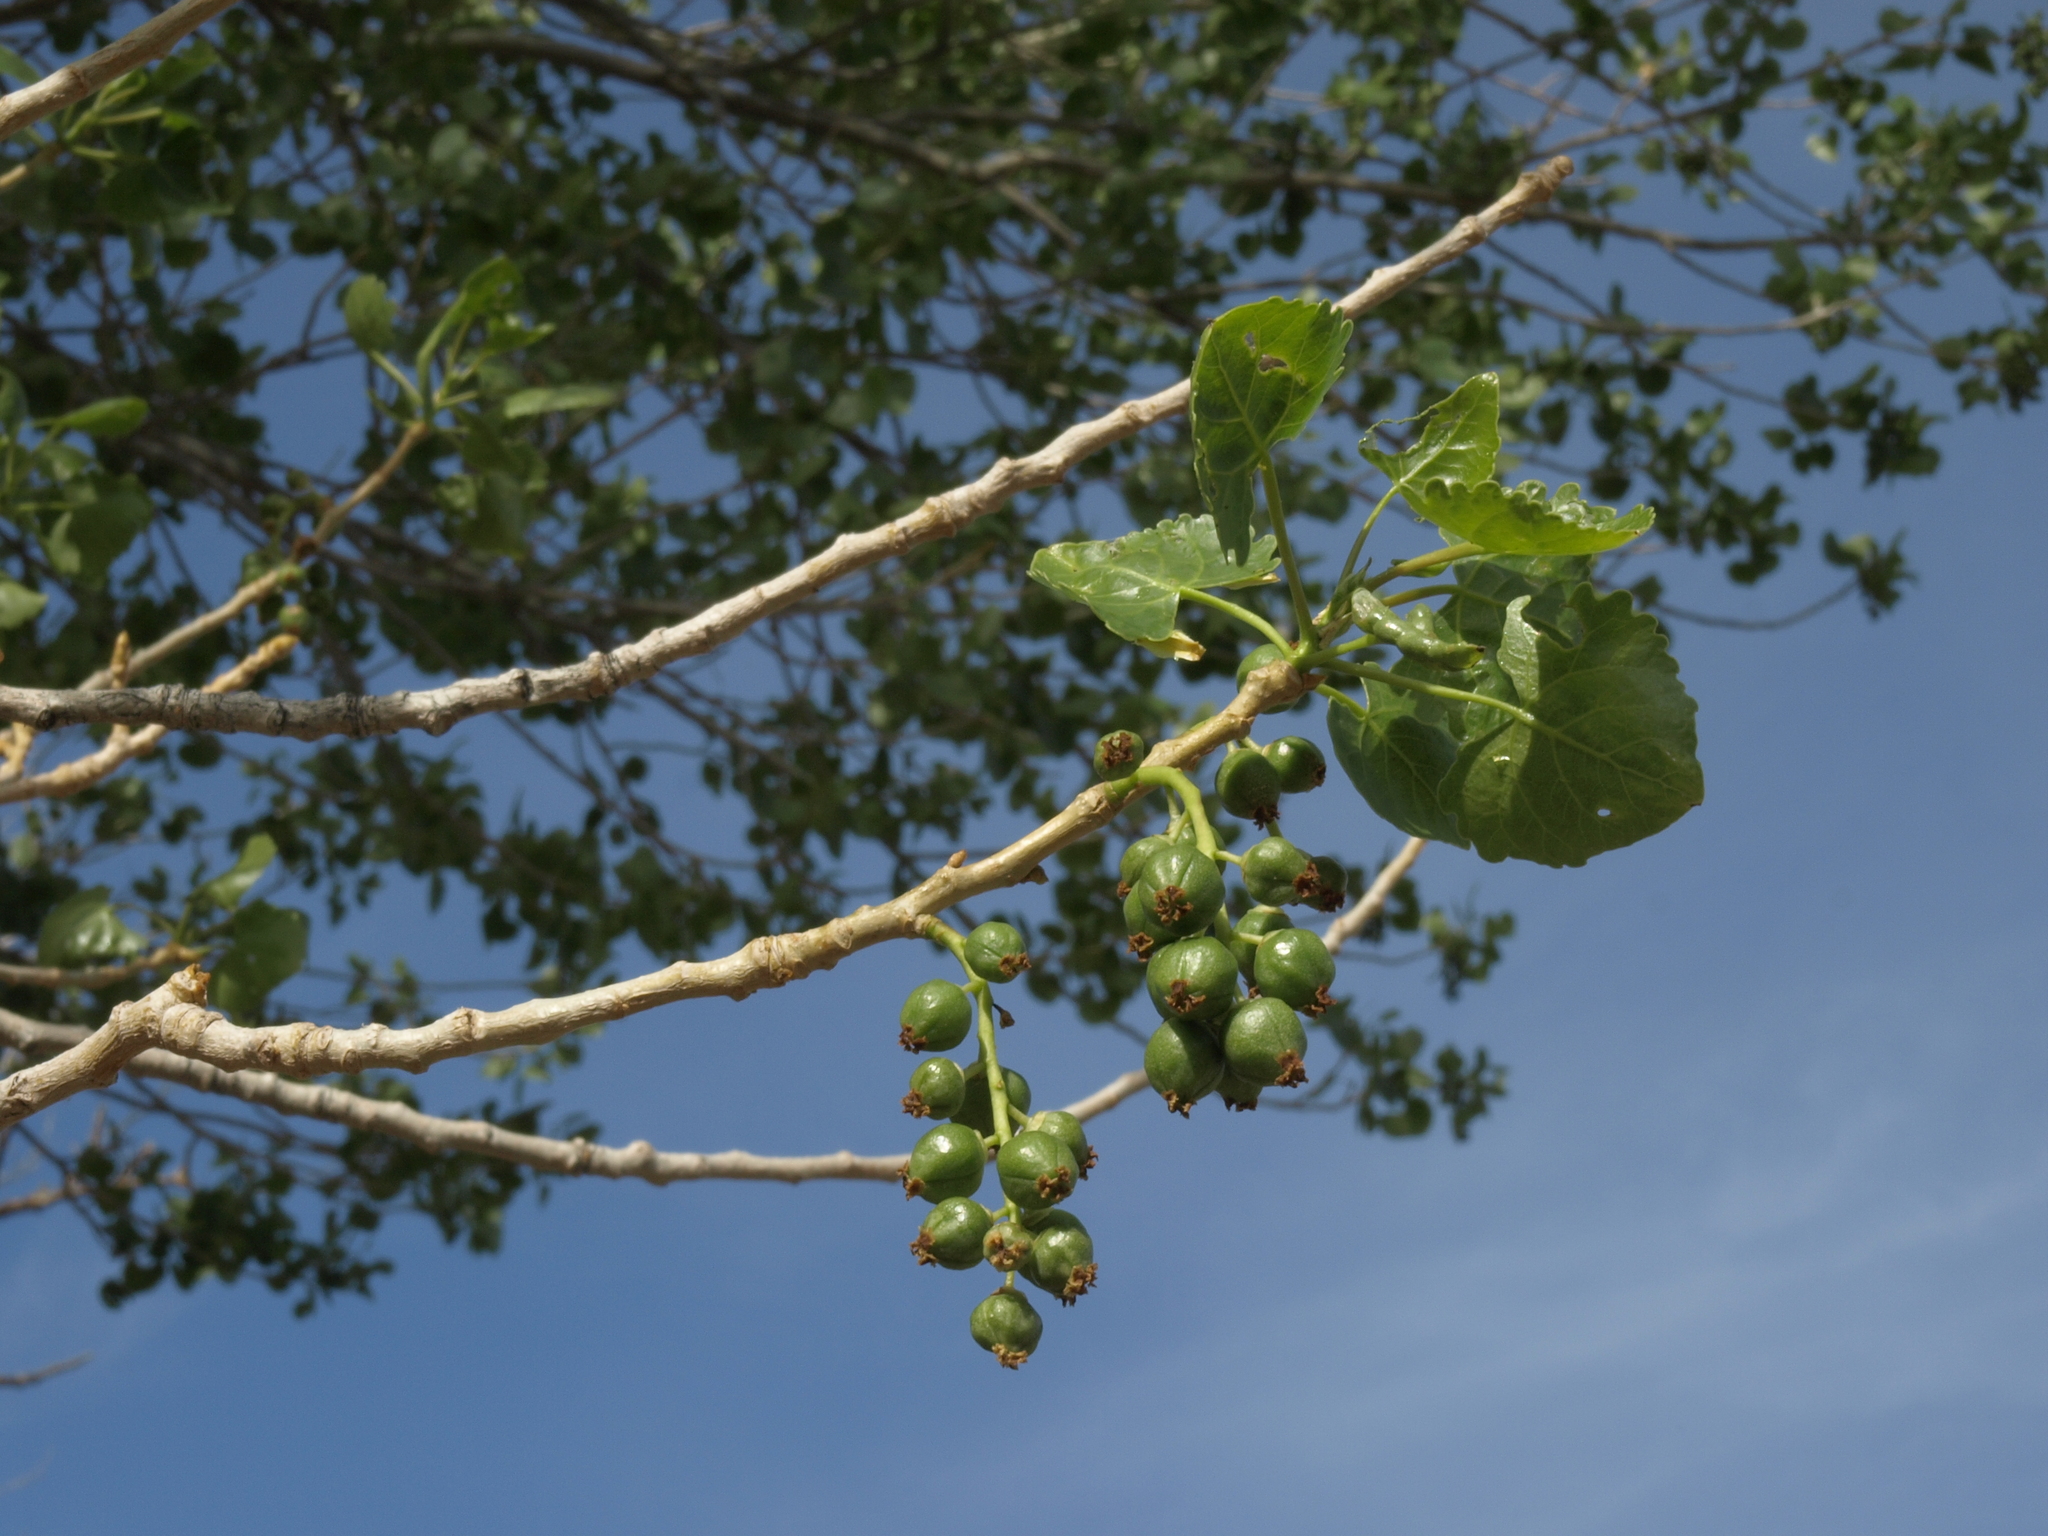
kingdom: Plantae
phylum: Tracheophyta
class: Magnoliopsida
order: Malpighiales
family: Salicaceae
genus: Populus
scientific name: Populus fremontii
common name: Fremont's cottonwood
